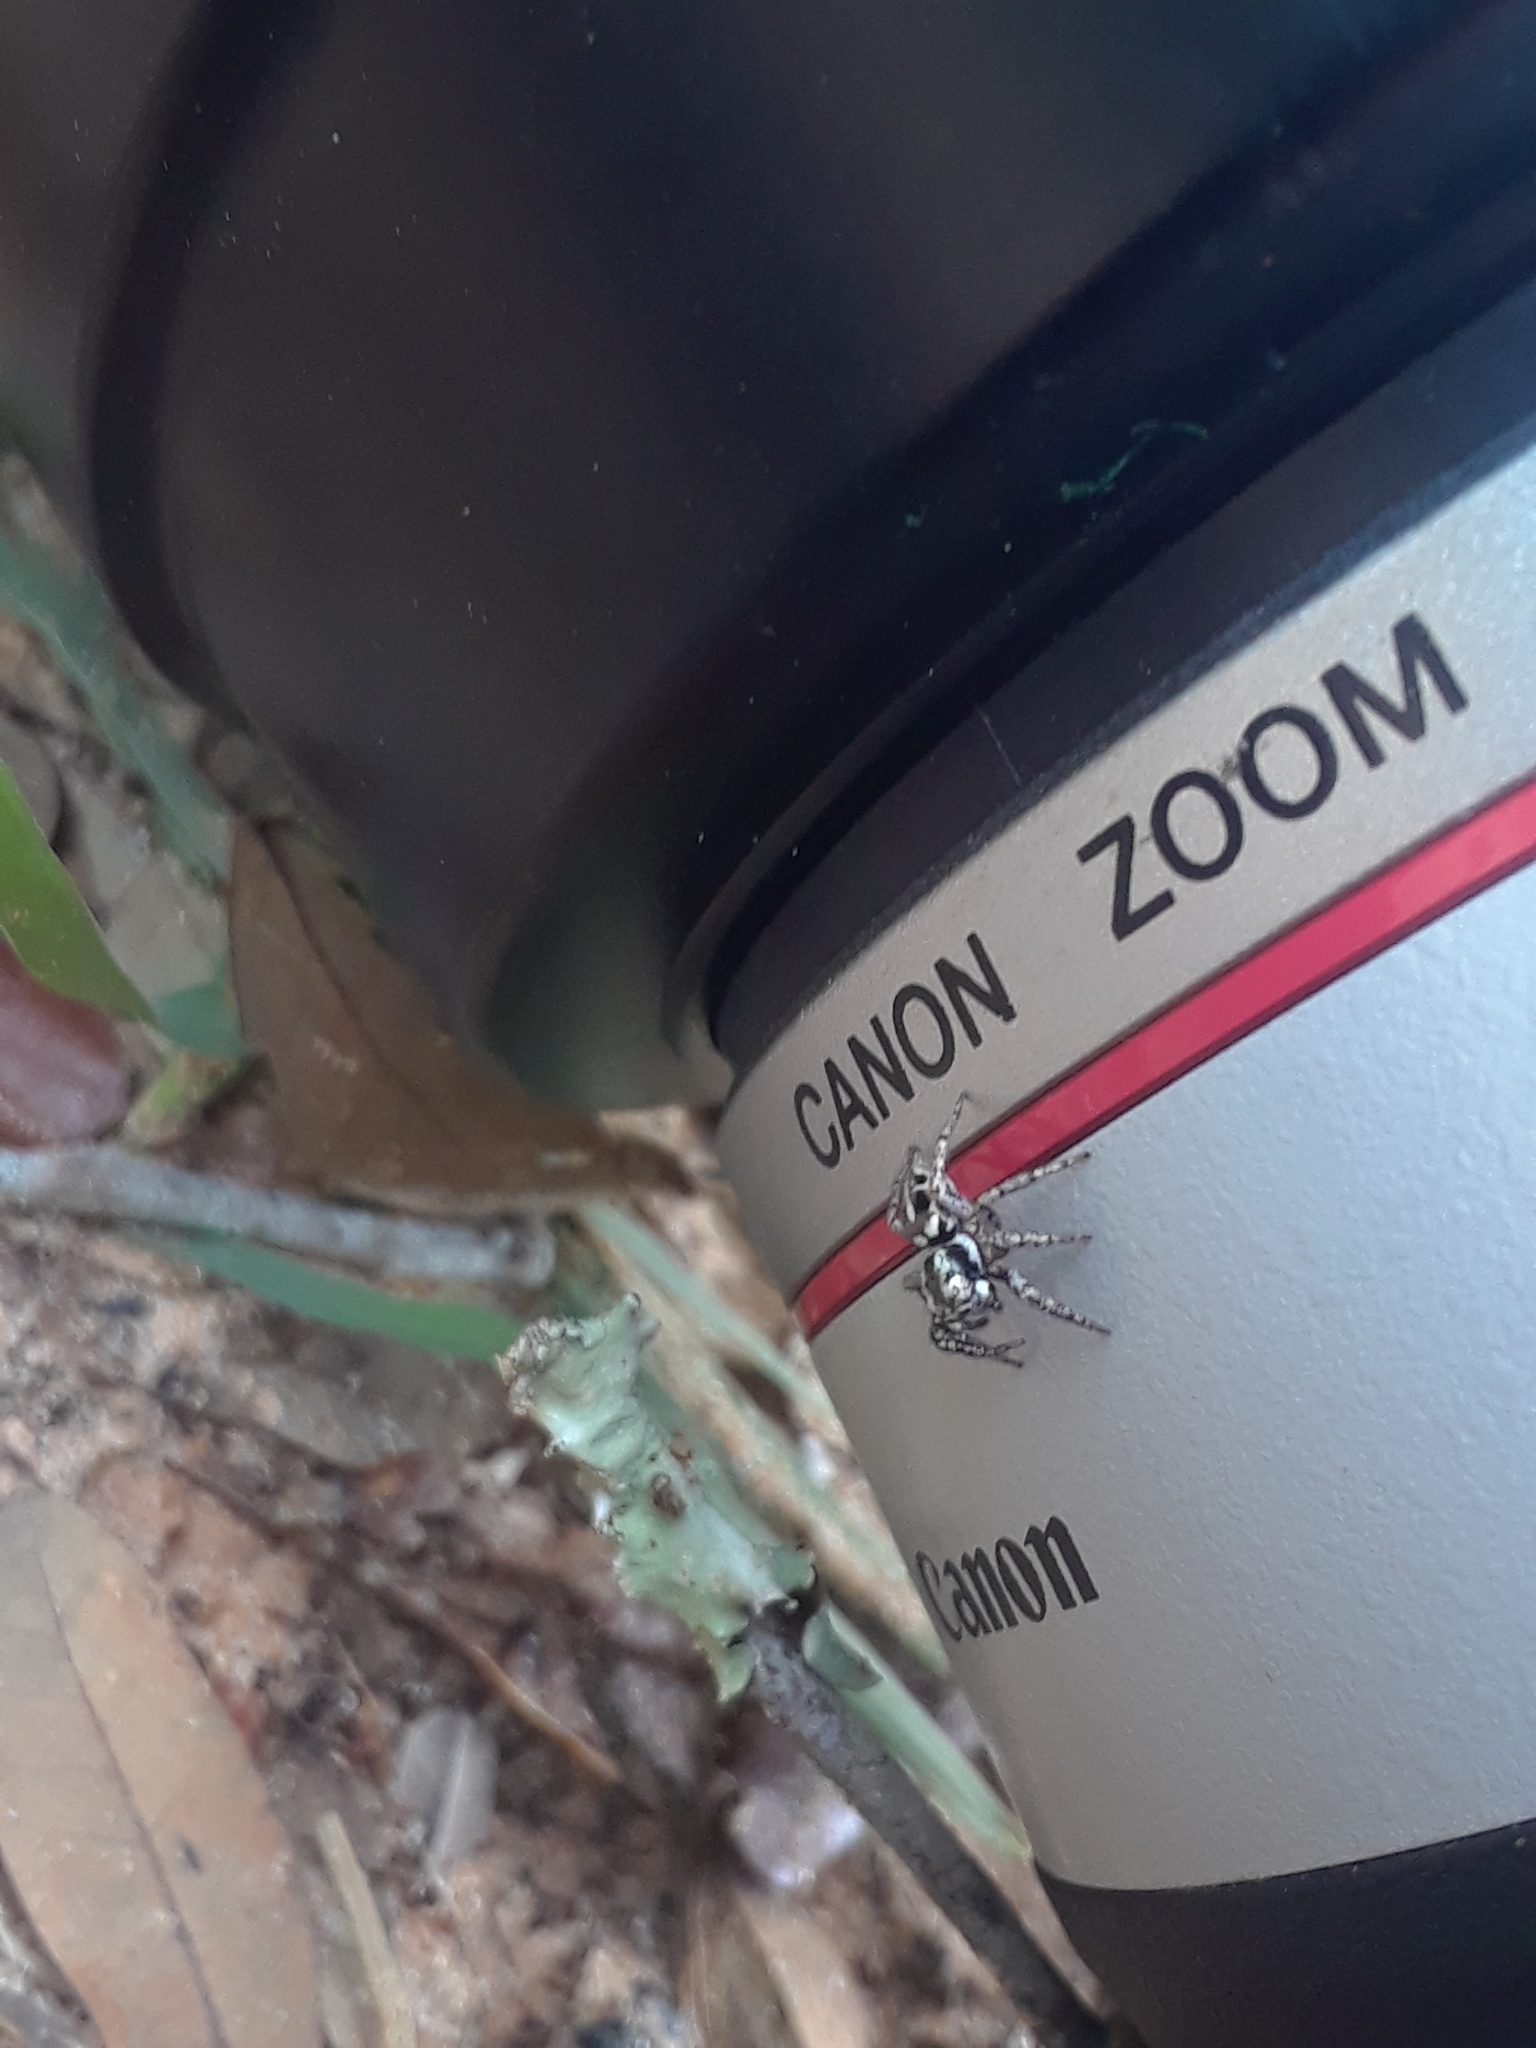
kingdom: Animalia
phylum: Arthropoda
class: Arachnida
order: Araneae
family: Salticidae
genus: Anasaitis
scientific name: Anasaitis canosa
